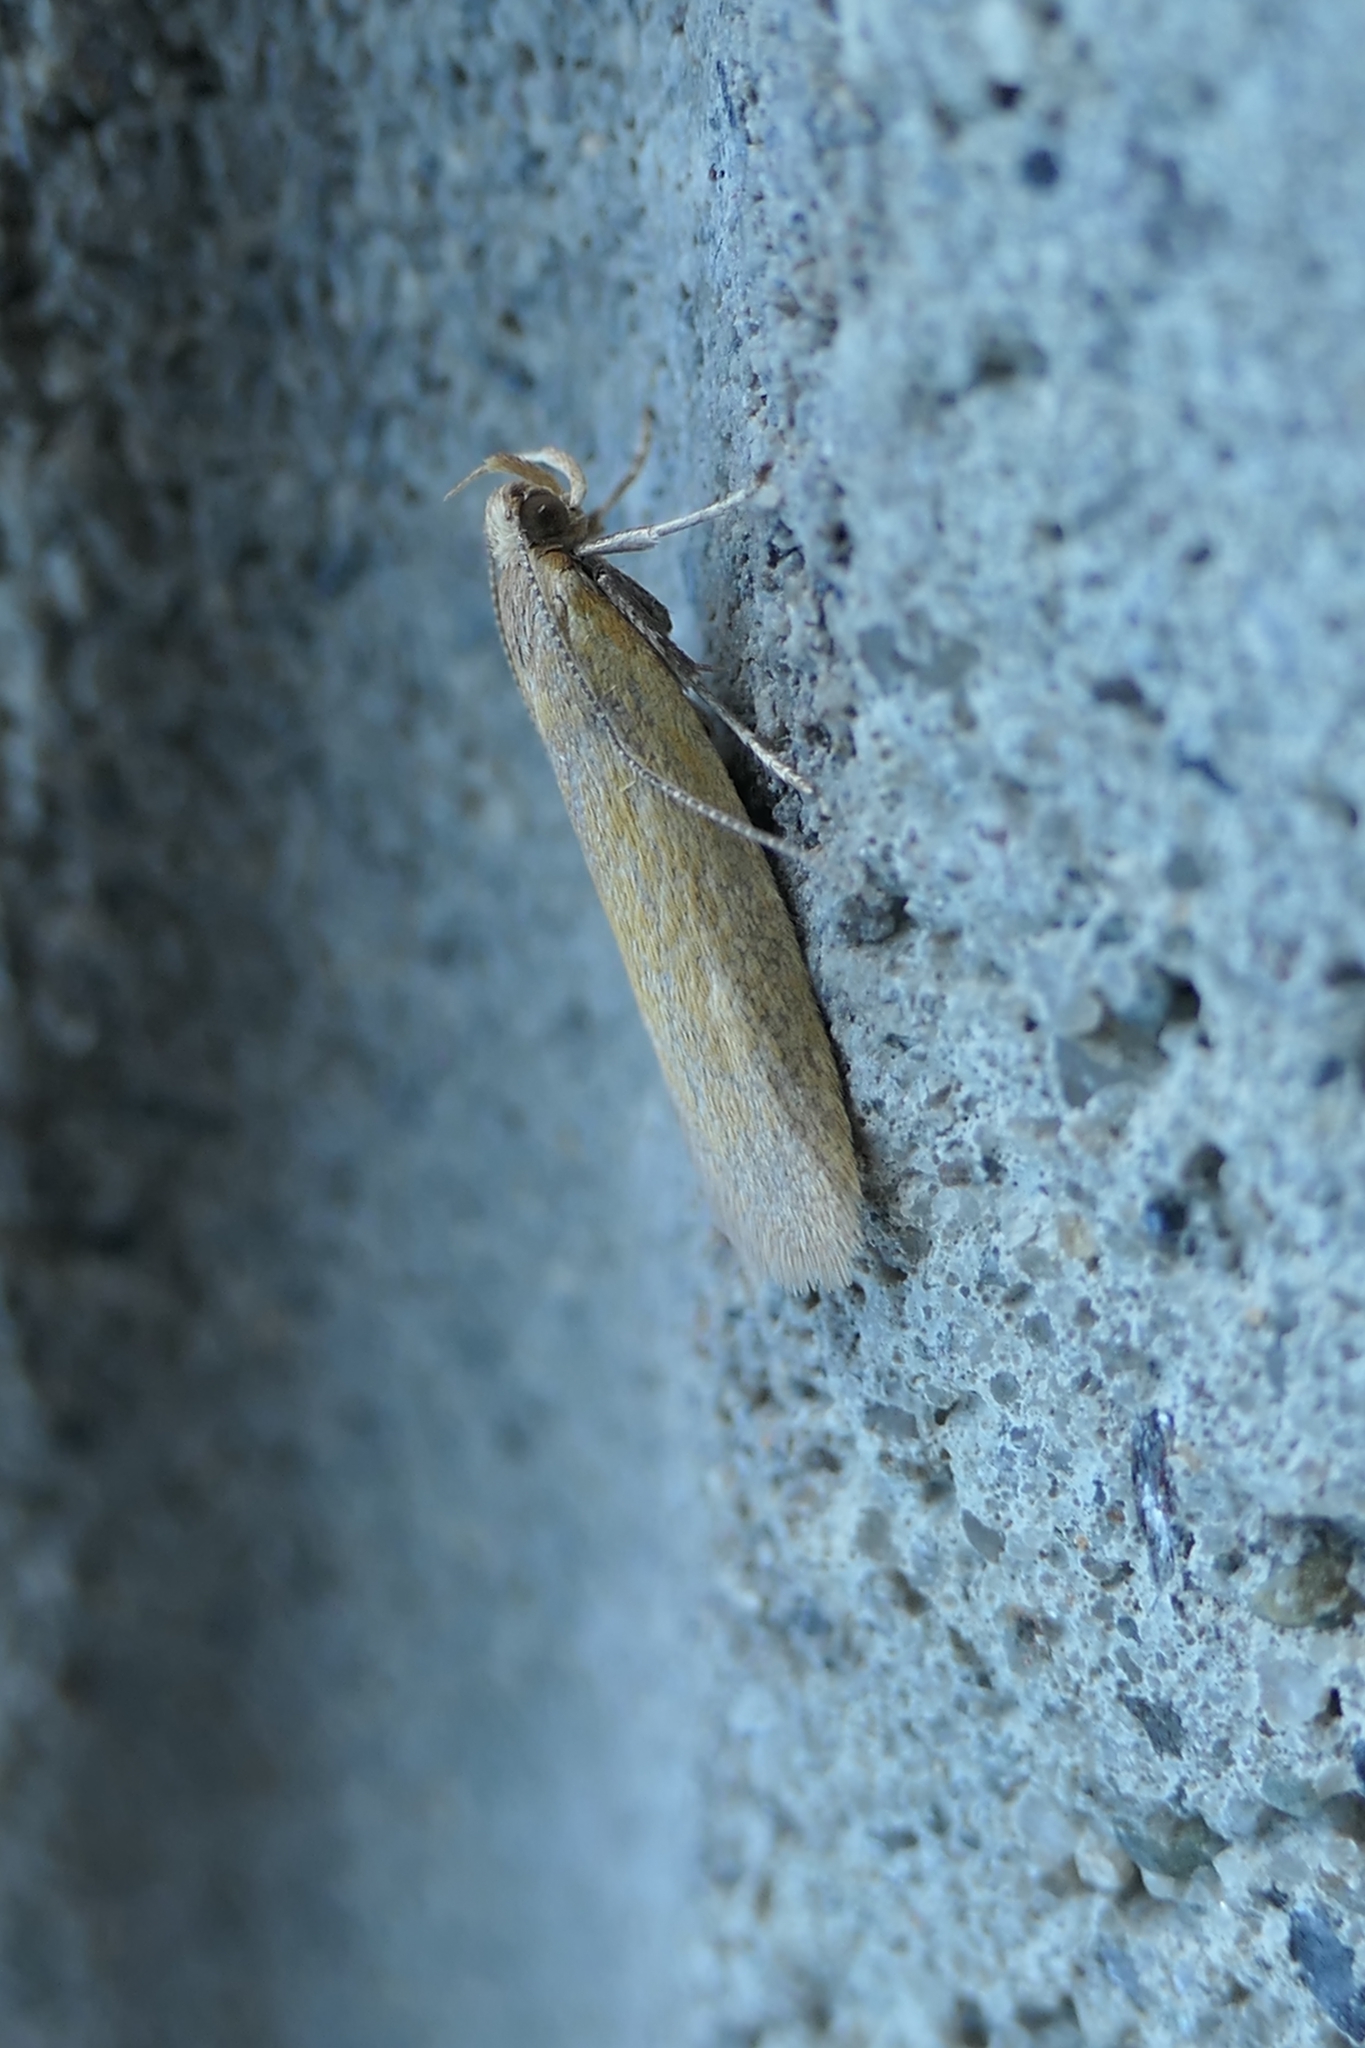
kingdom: Animalia
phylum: Arthropoda
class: Insecta
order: Lepidoptera
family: Oecophoridae
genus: Gymnobathra
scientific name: Gymnobathra parca
